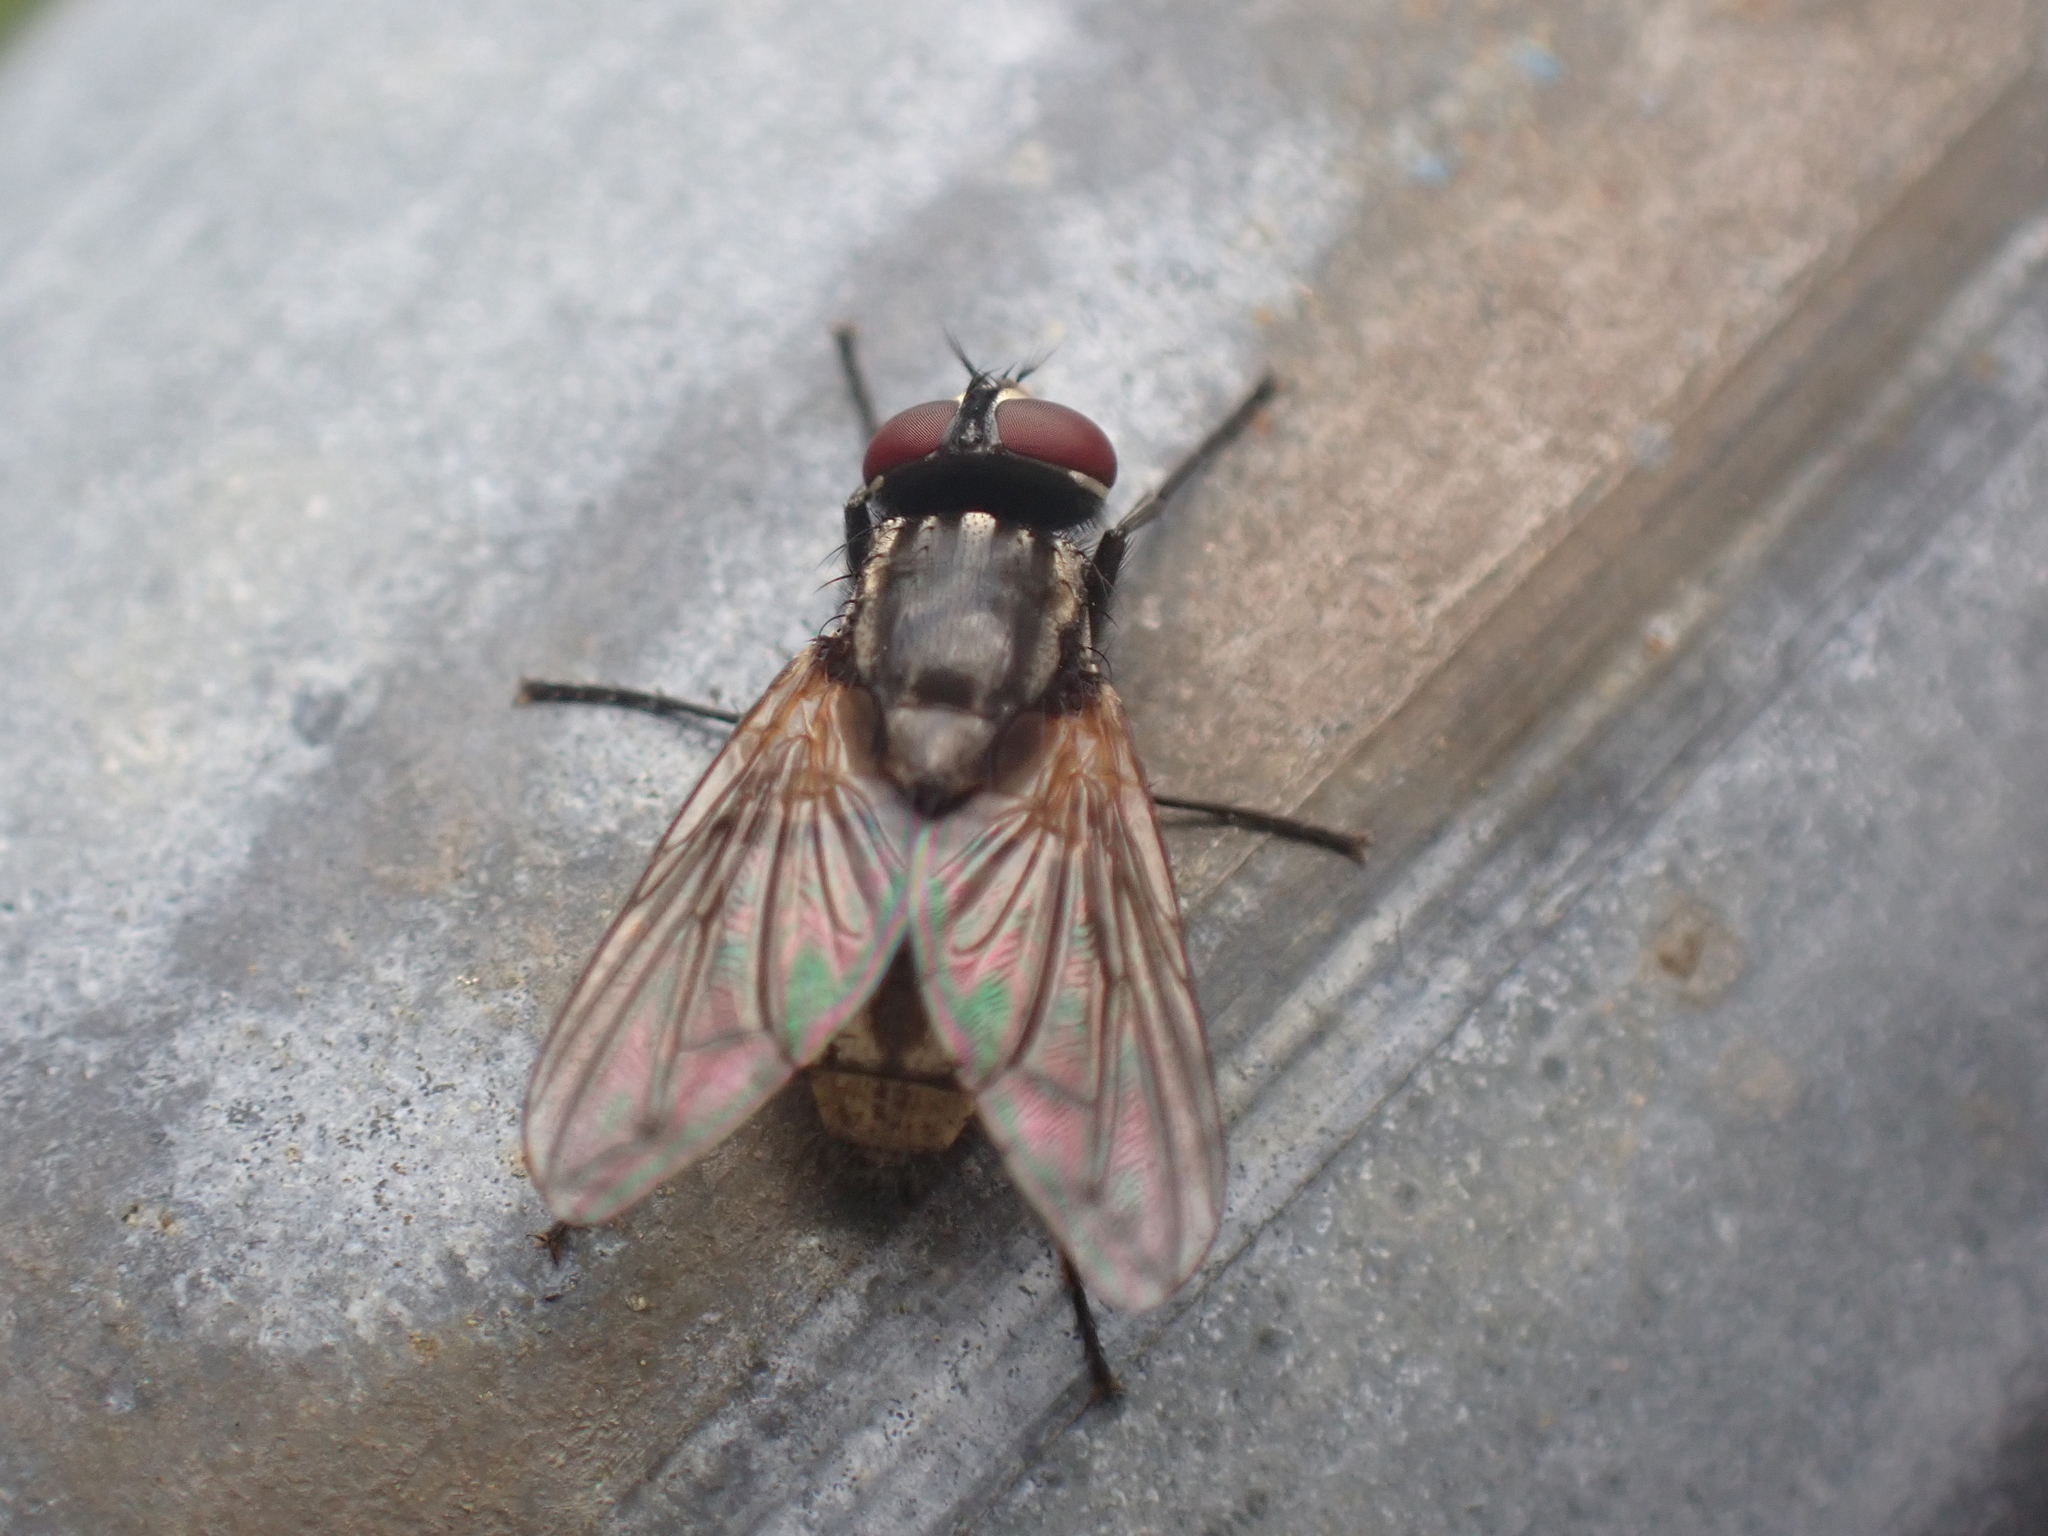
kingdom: Animalia
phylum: Arthropoda
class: Insecta
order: Diptera
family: Muscidae
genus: Musca
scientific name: Musca domestica
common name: House fly
